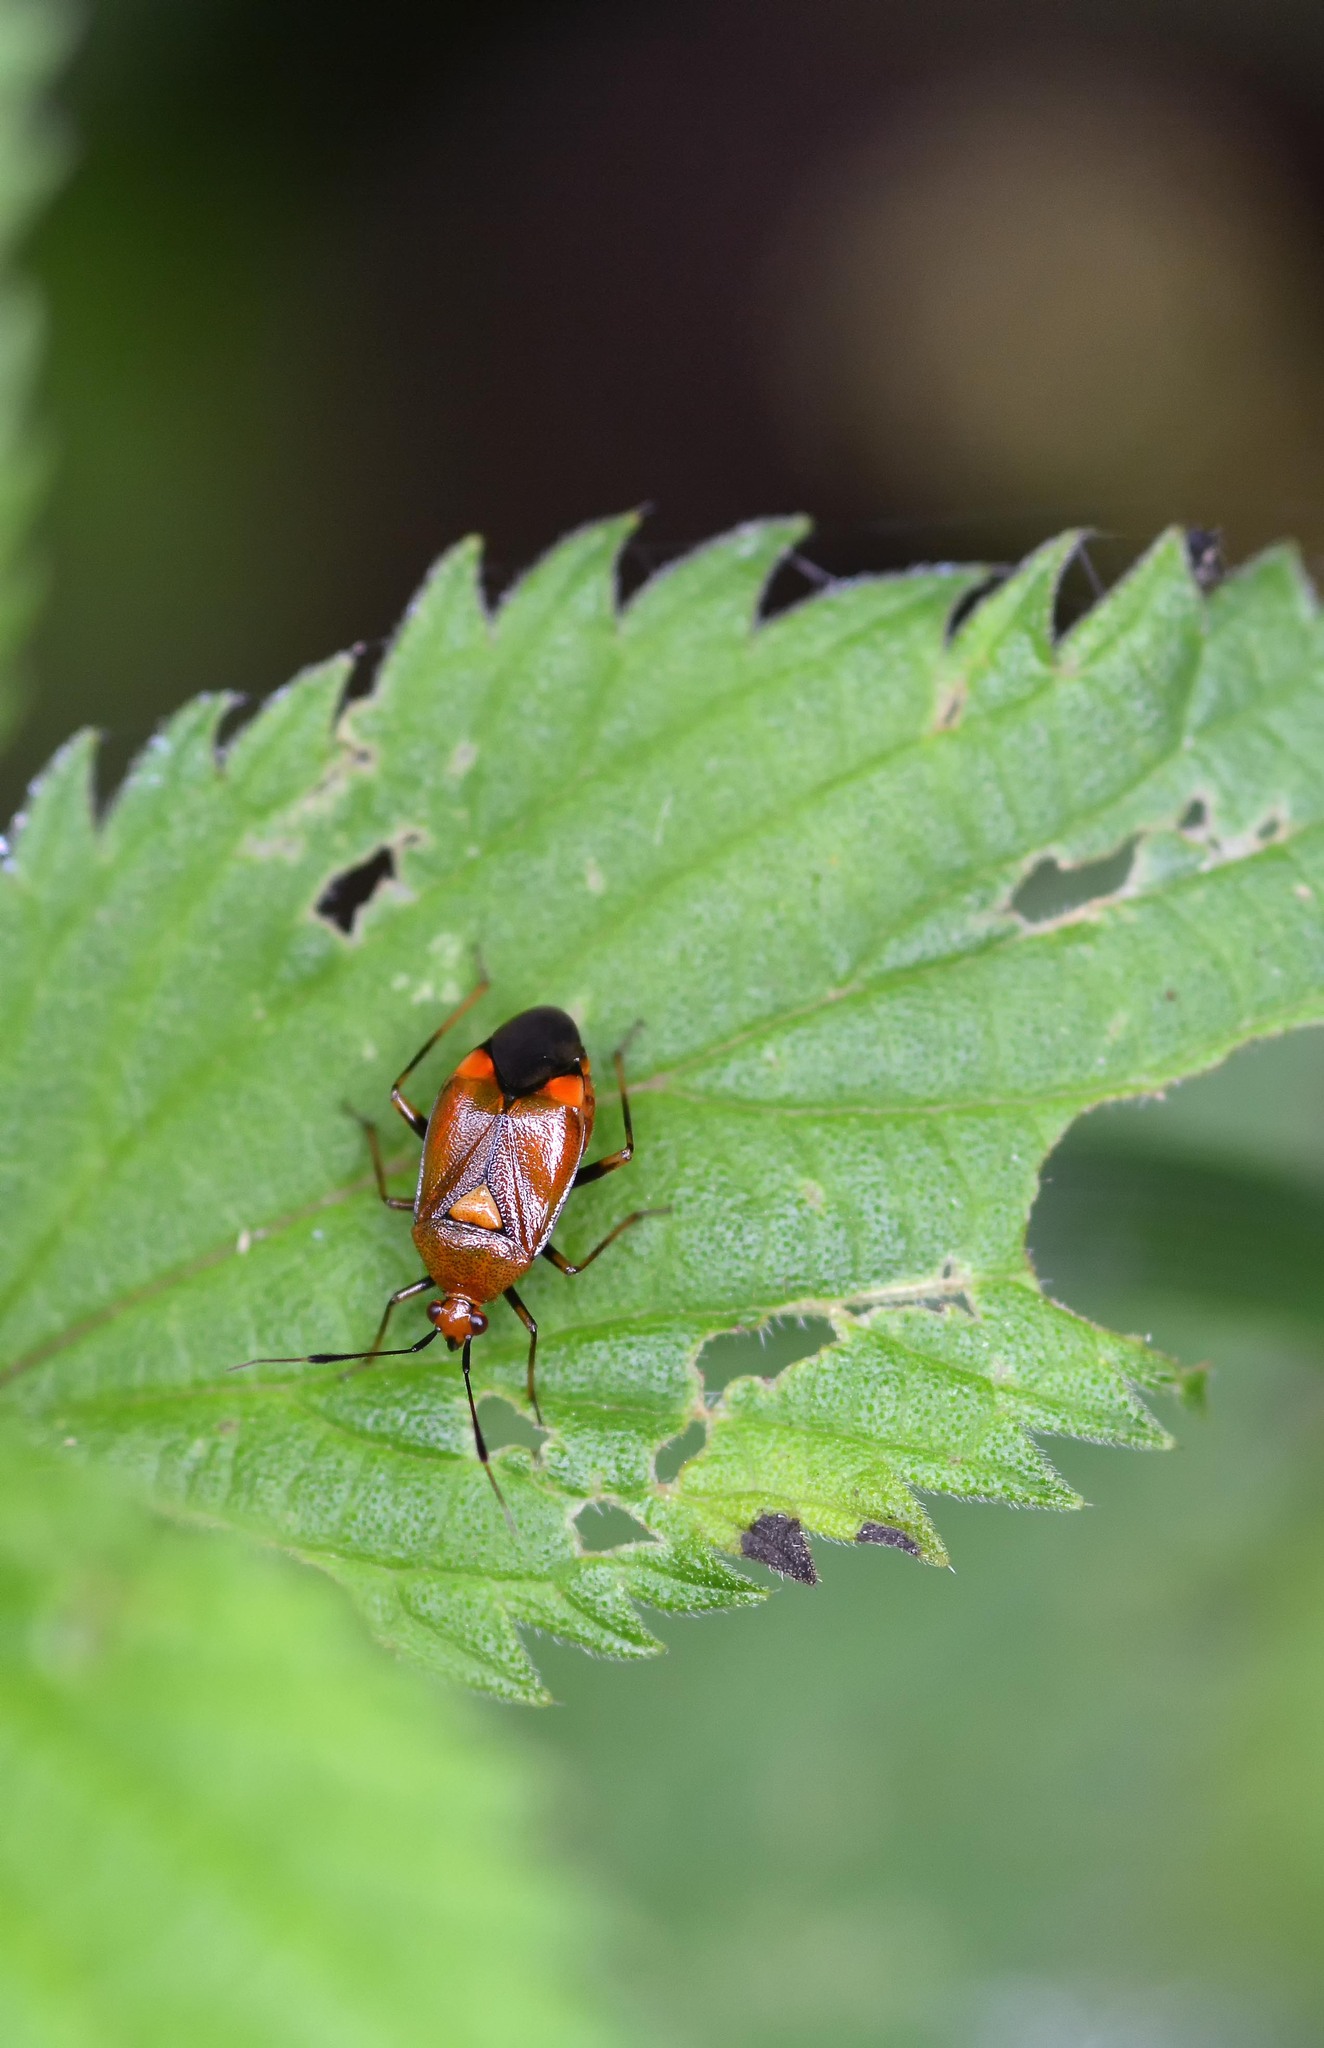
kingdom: Animalia
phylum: Arthropoda
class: Insecta
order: Hemiptera
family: Miridae
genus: Deraeocoris
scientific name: Deraeocoris ruber
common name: Plant bug
